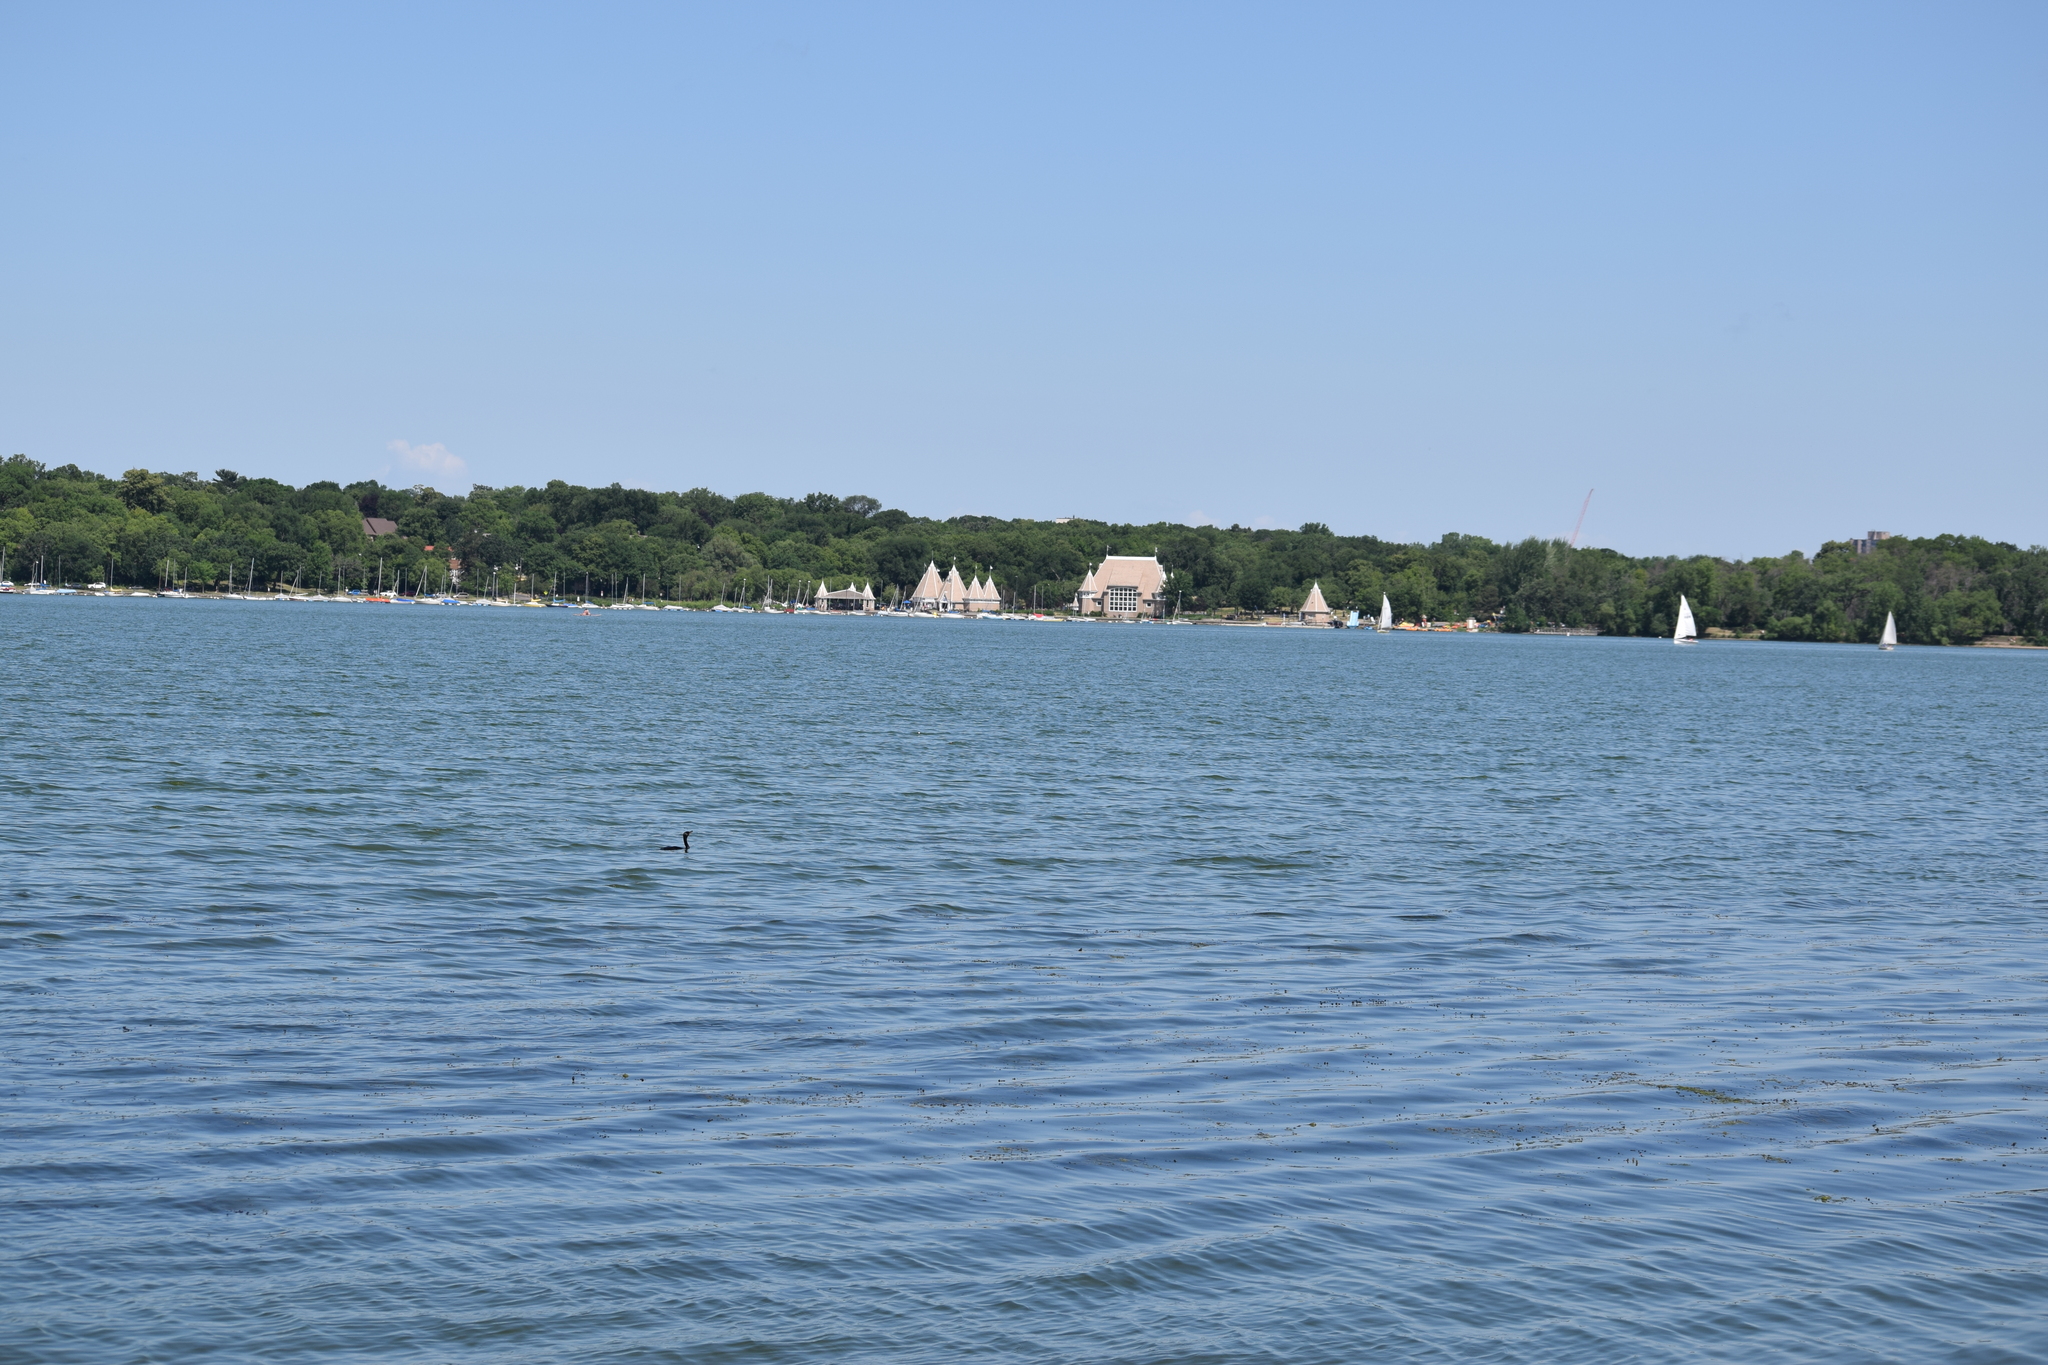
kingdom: Animalia
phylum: Chordata
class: Aves
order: Suliformes
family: Phalacrocoracidae
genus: Phalacrocorax
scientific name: Phalacrocorax auritus
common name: Double-crested cormorant
